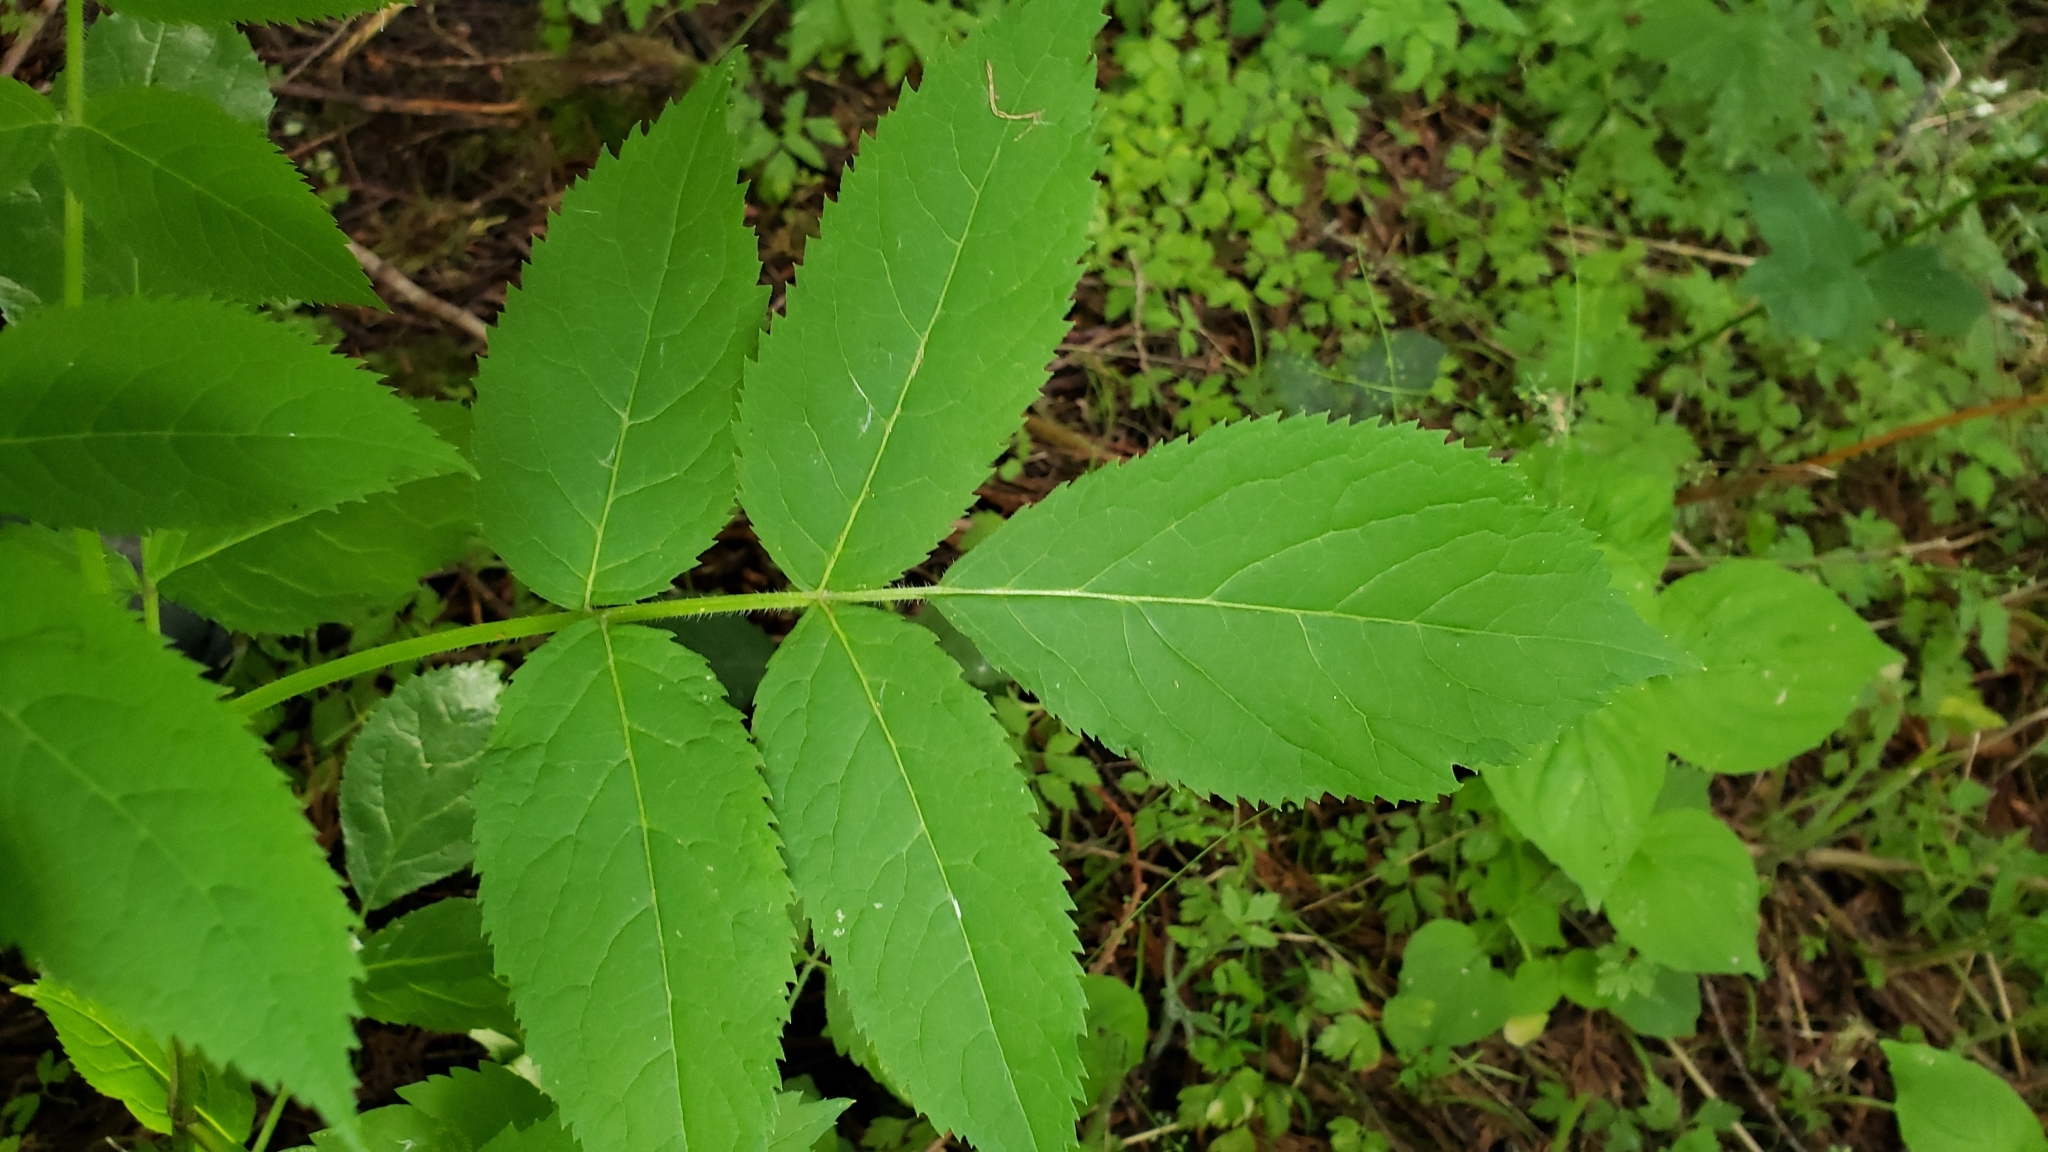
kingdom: Plantae
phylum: Tracheophyta
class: Magnoliopsida
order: Dipsacales
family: Viburnaceae
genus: Sambucus
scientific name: Sambucus racemosa
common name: Red-berried elder
